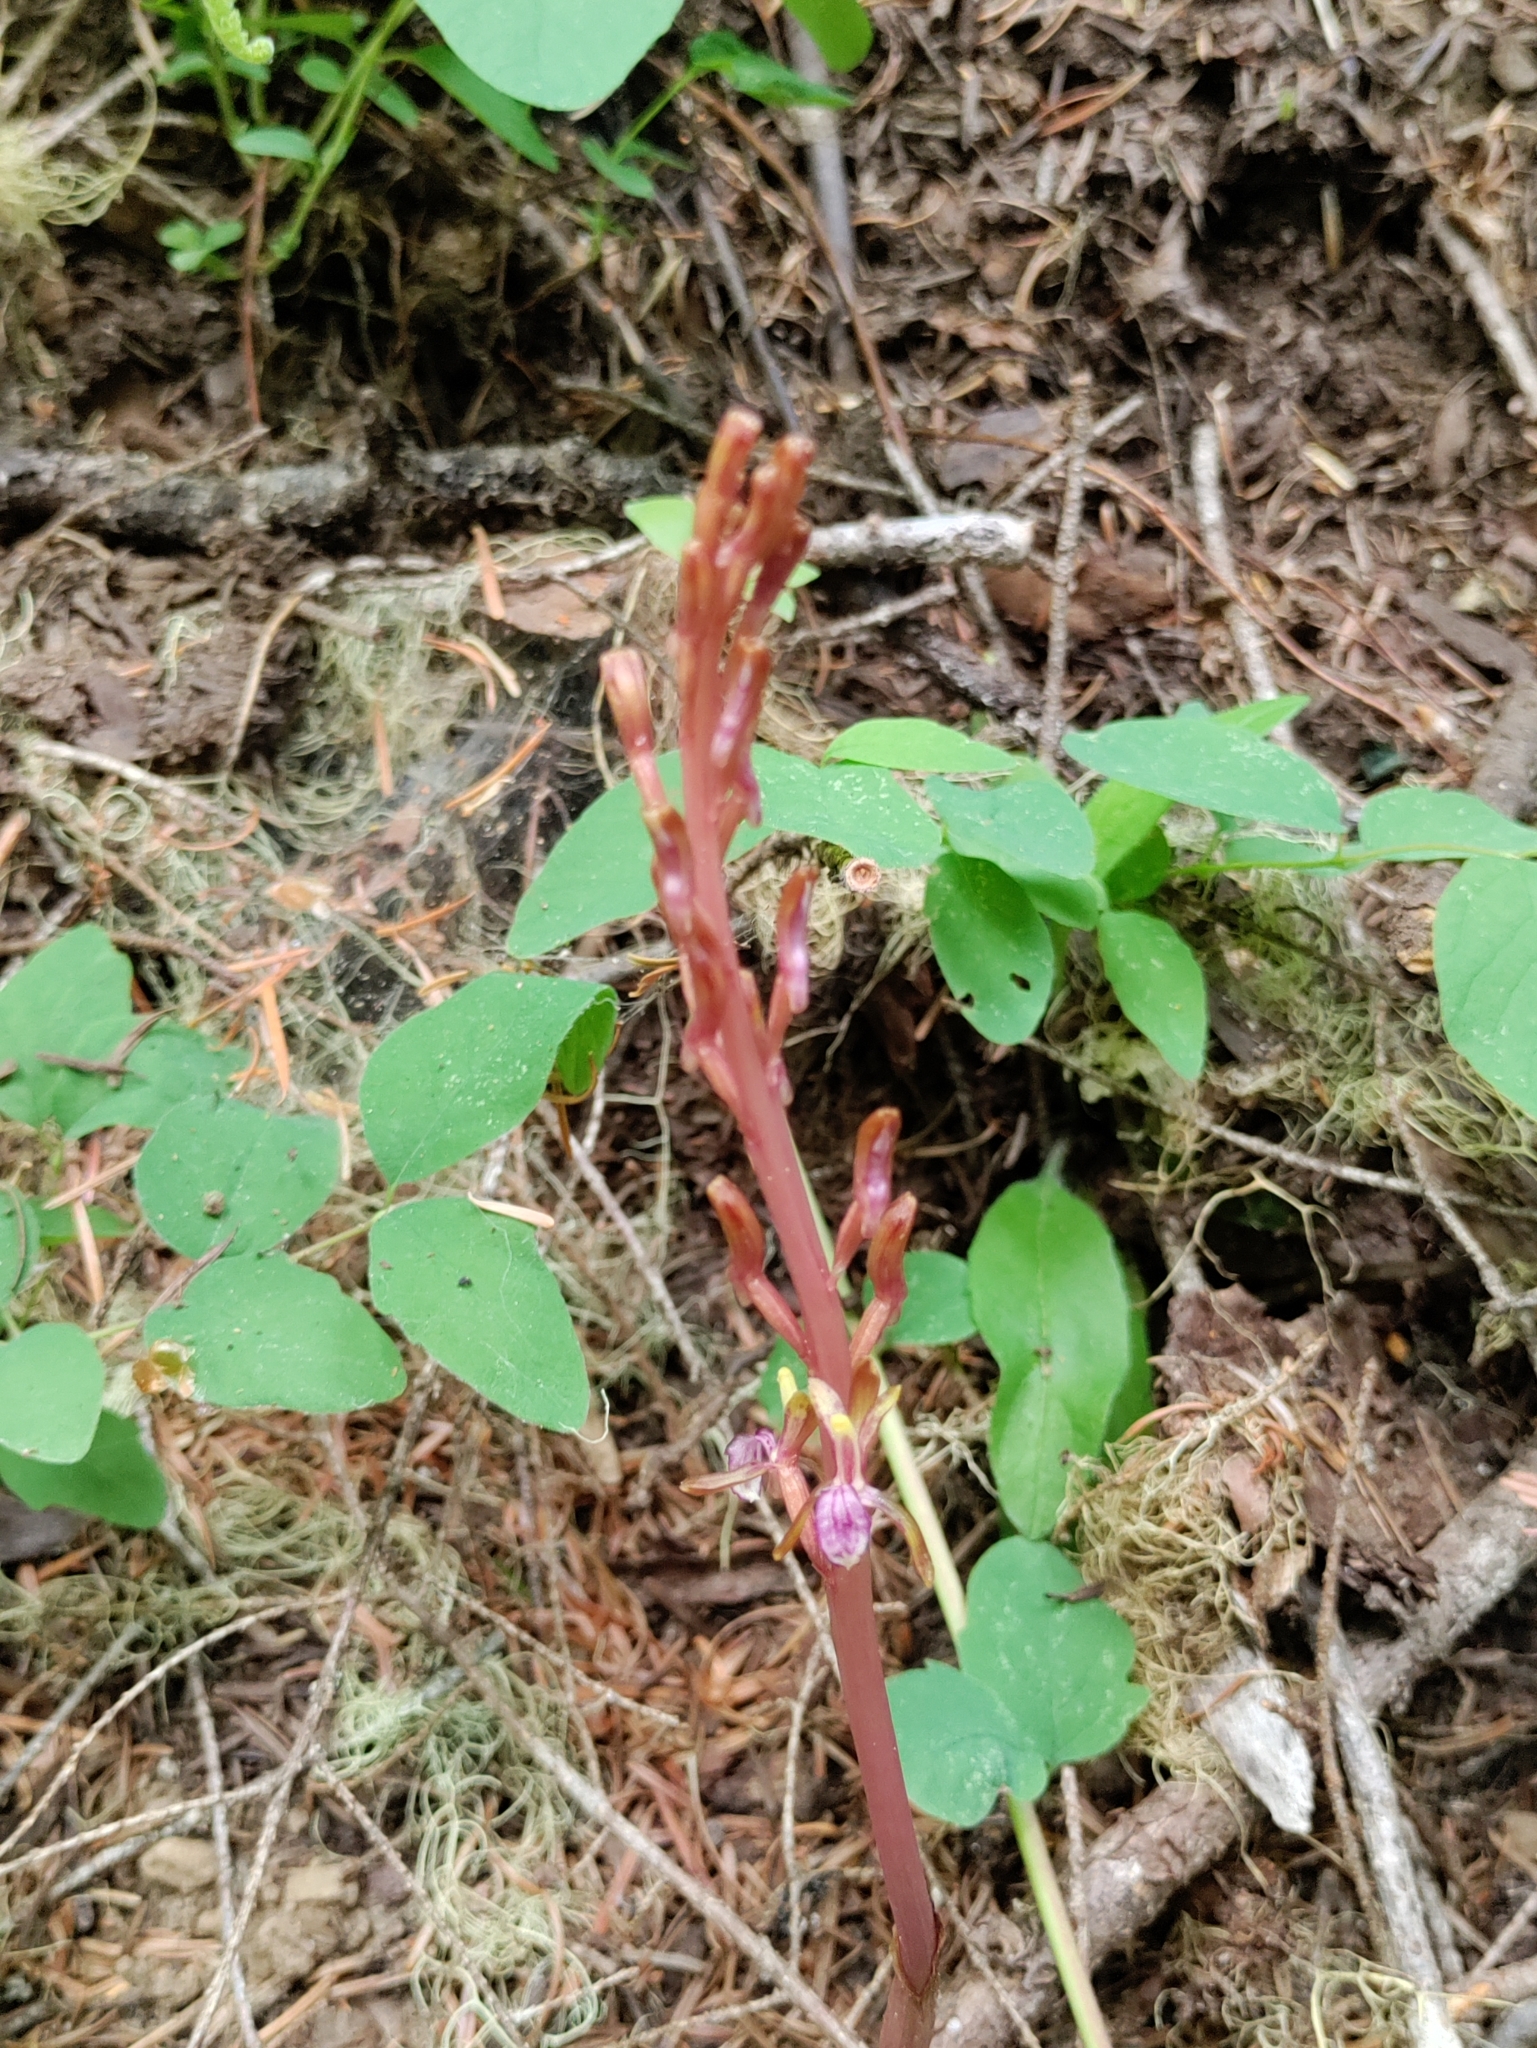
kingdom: Plantae
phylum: Tracheophyta
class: Liliopsida
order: Asparagales
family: Orchidaceae
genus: Corallorhiza
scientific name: Corallorhiza mertensiana
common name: Pacific coralroot
